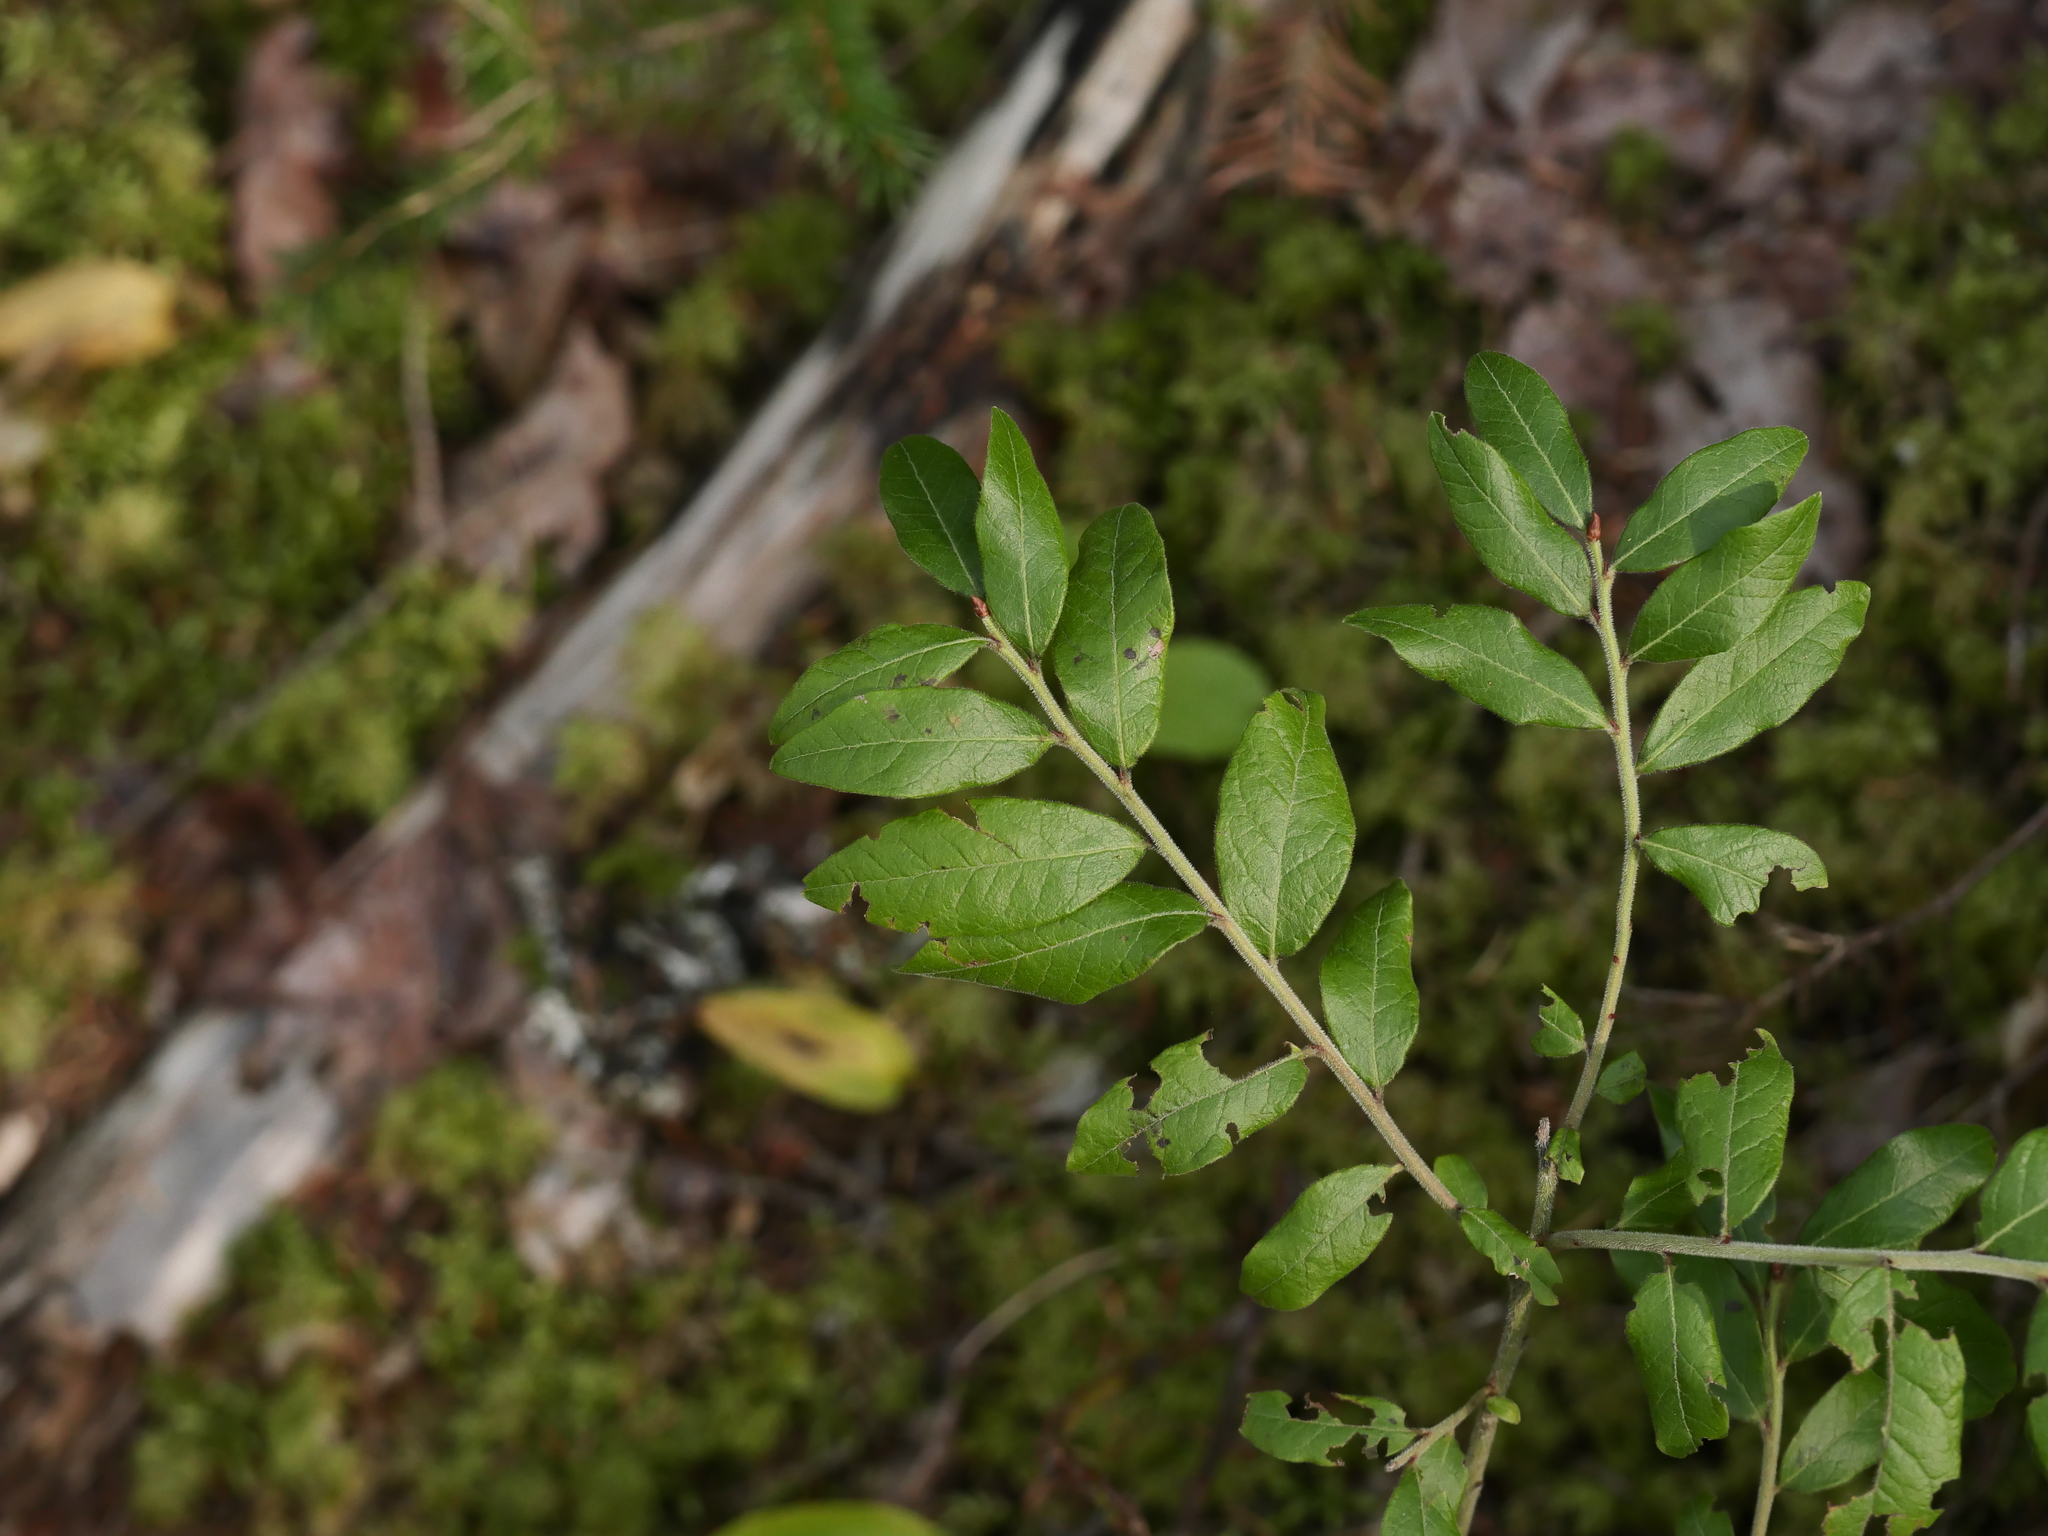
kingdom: Plantae
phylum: Tracheophyta
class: Magnoliopsida
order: Ericales
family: Ericaceae
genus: Vaccinium
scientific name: Vaccinium myrtilloides
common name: Canada blueberry
